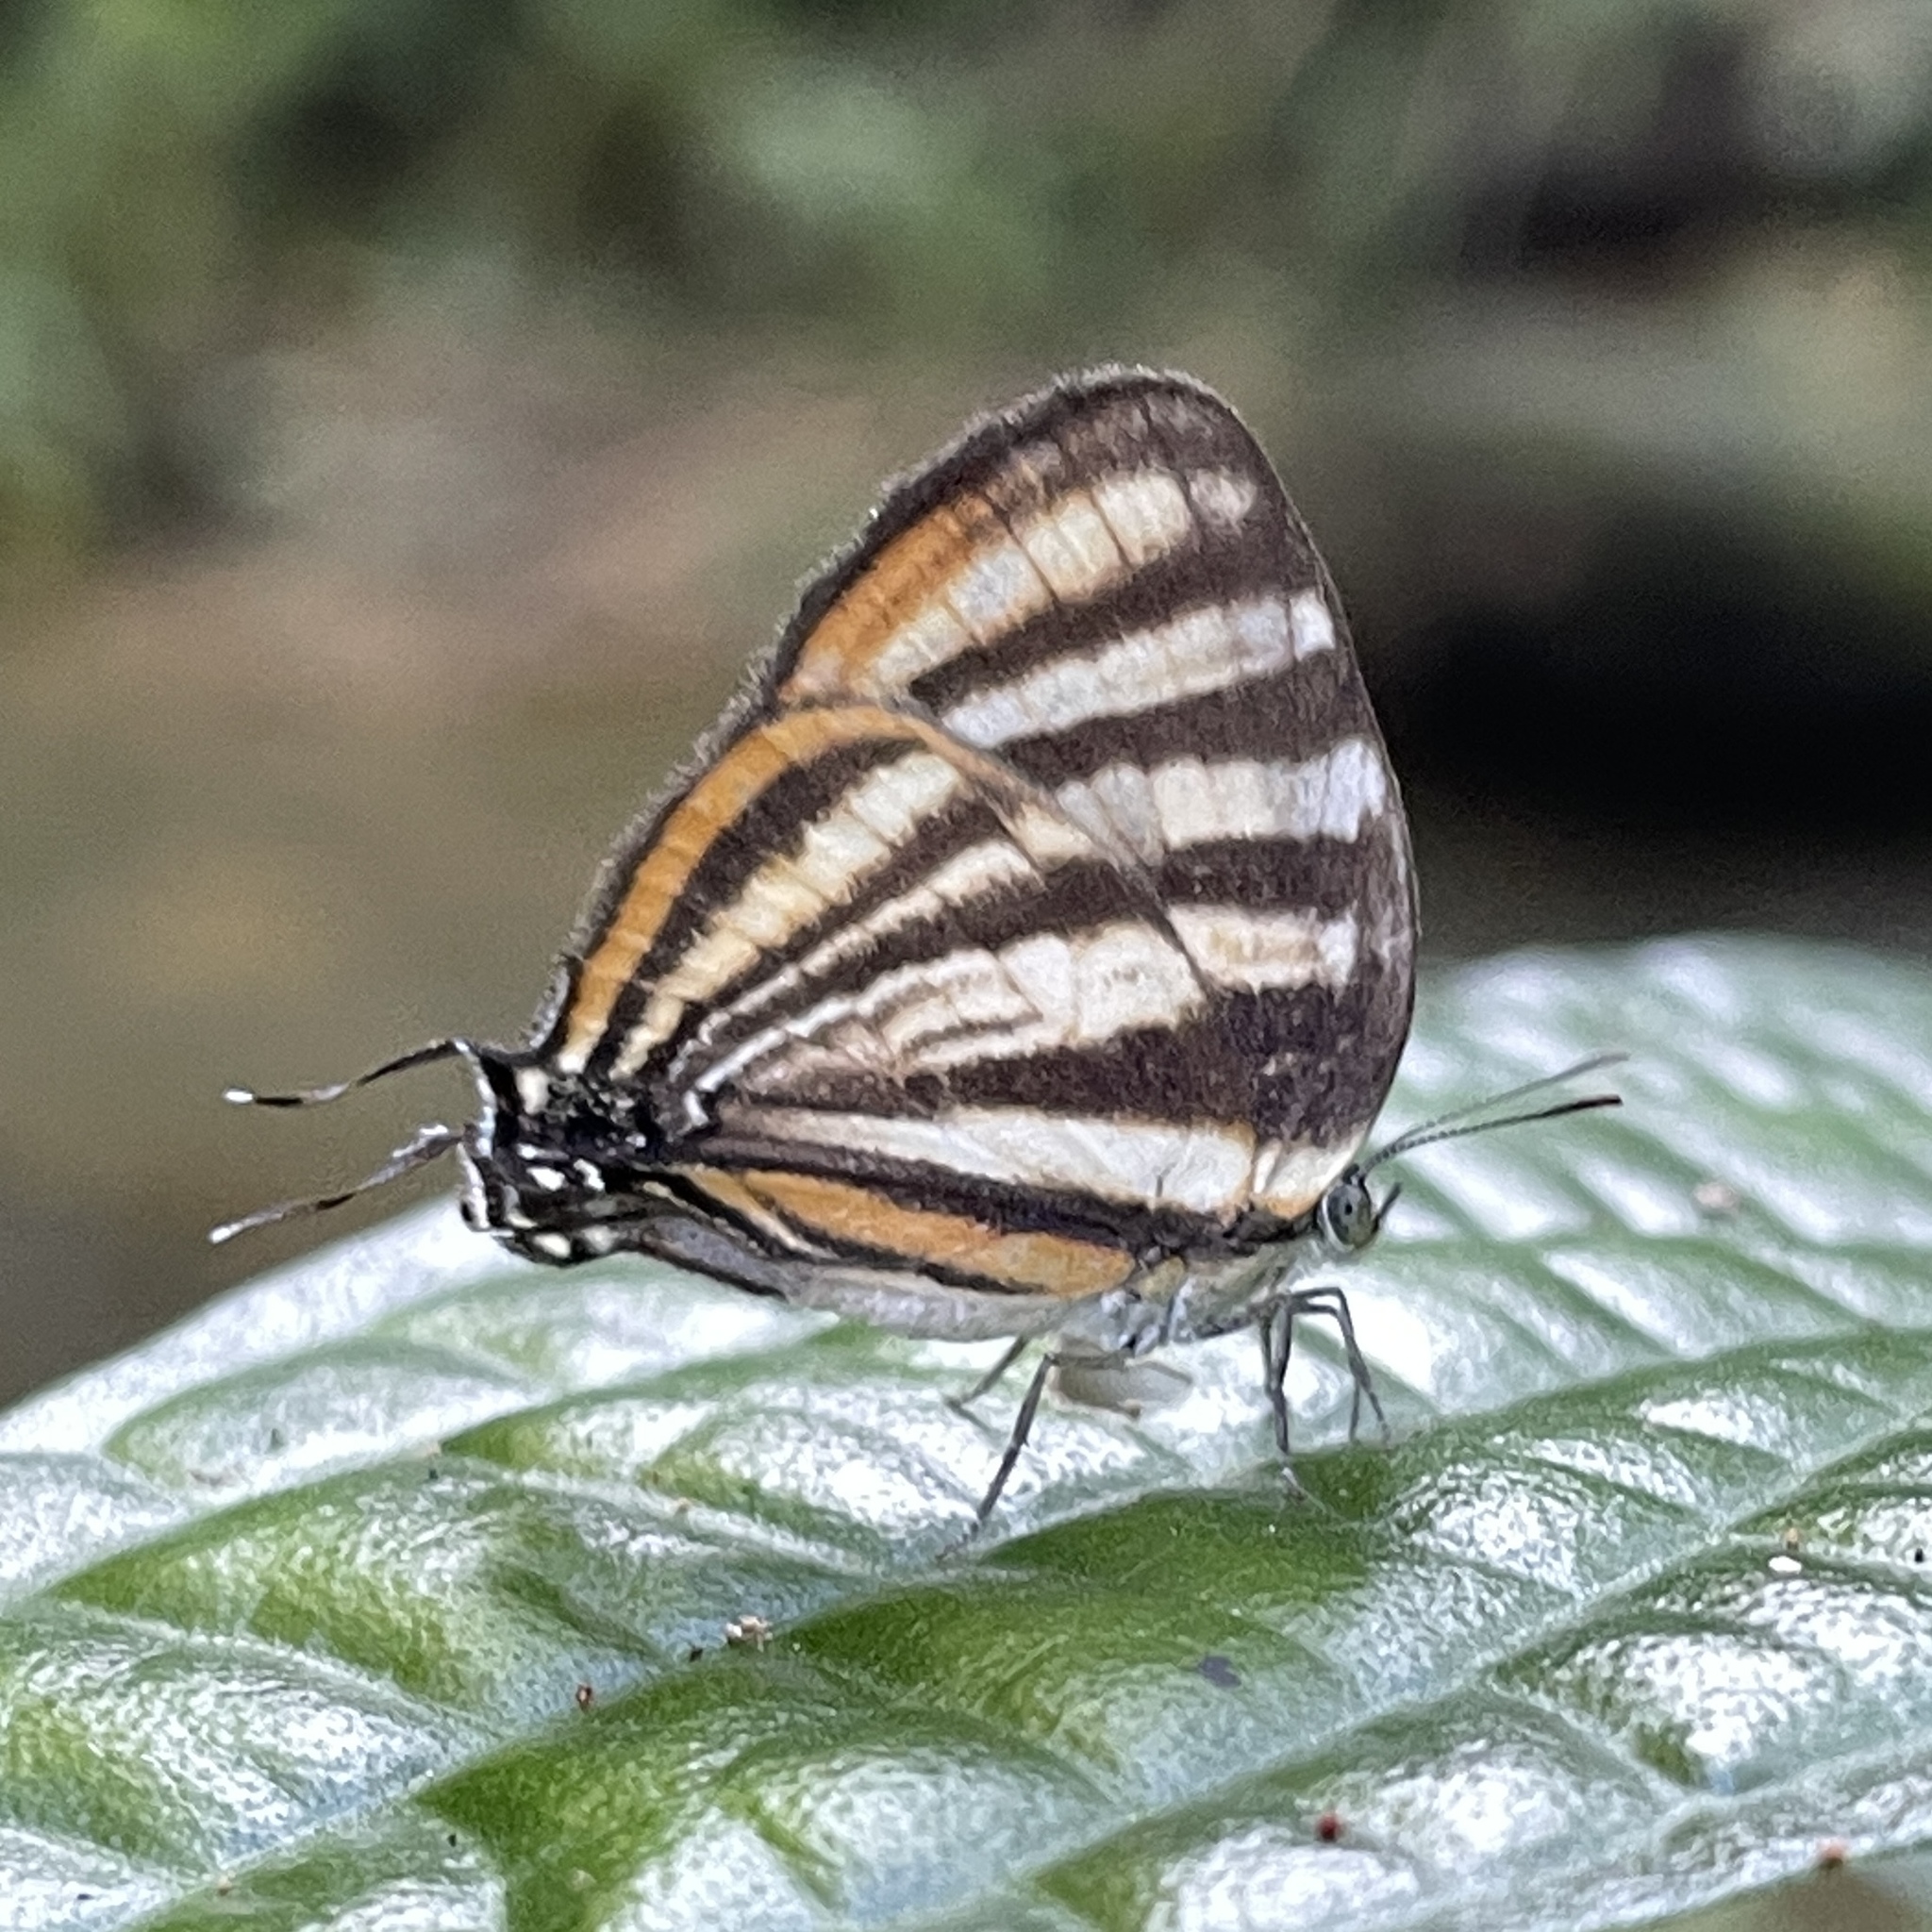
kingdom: Animalia
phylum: Arthropoda
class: Insecta
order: Lepidoptera
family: Lycaenidae
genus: Thecla
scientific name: Thecla aetolus
